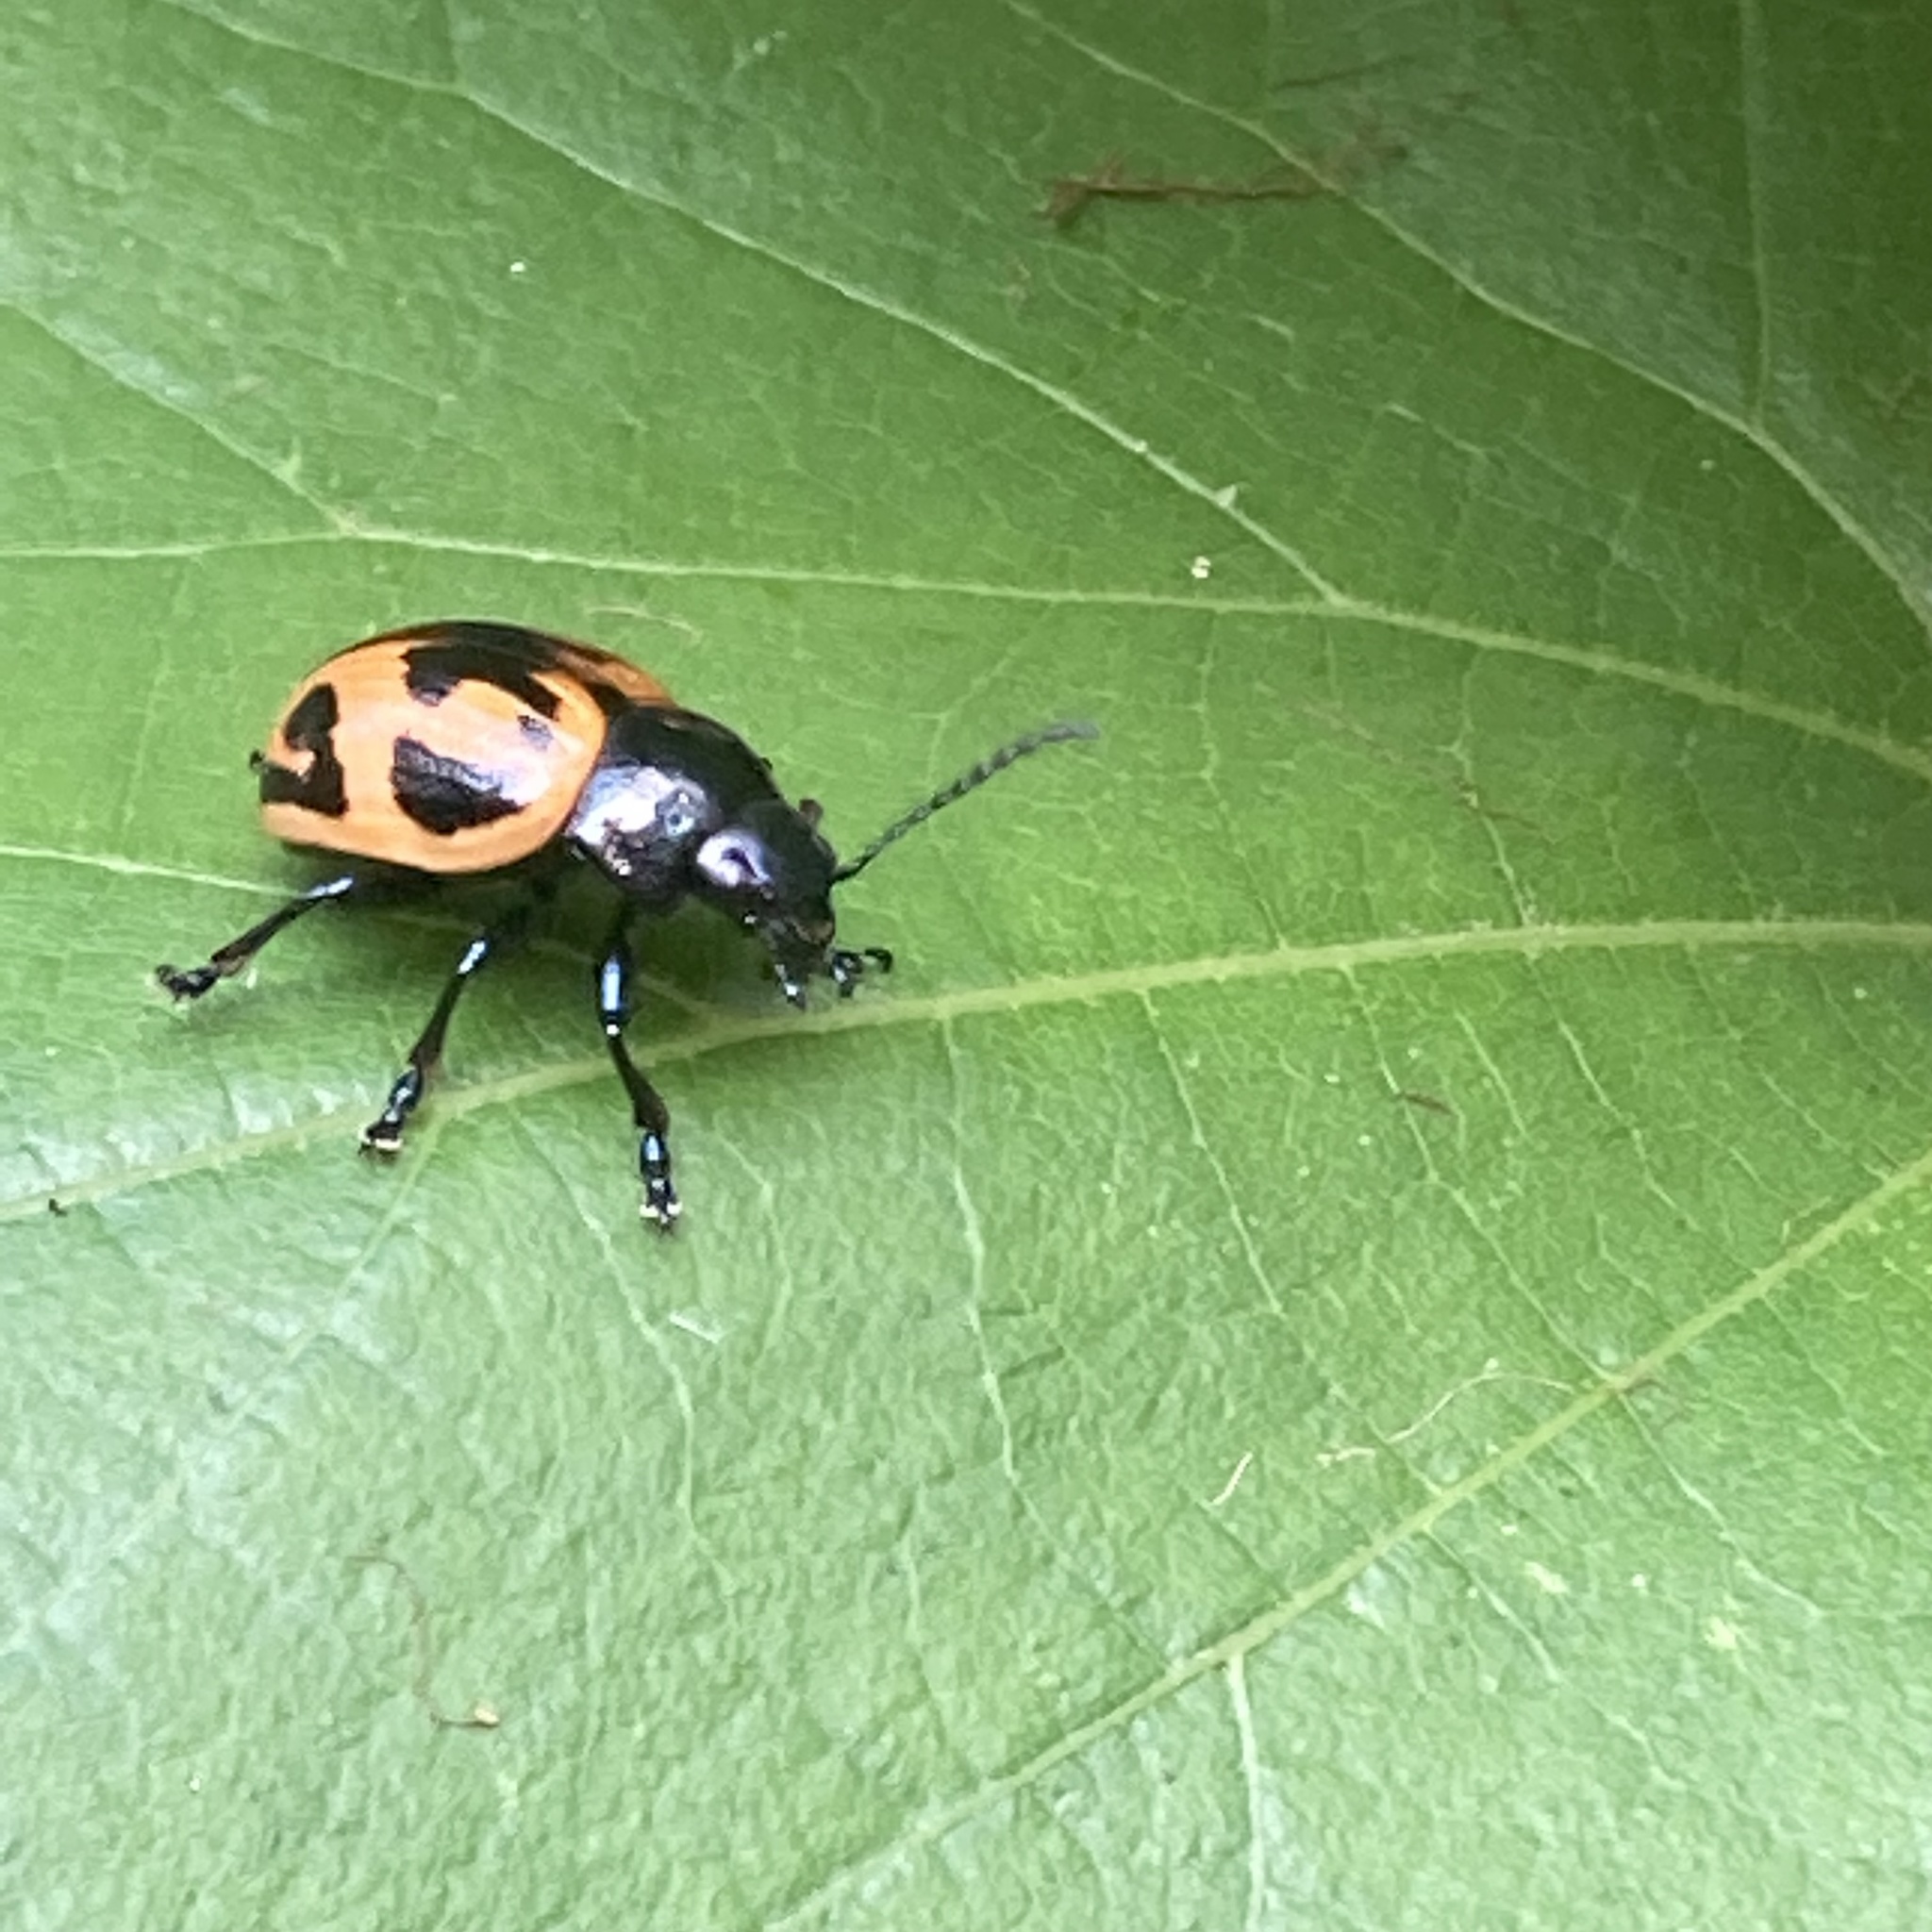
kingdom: Animalia
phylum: Arthropoda
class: Insecta
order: Coleoptera
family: Chrysomelidae
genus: Labidomera
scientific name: Labidomera clivicollis
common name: Swamp milkweed leaf beetle
